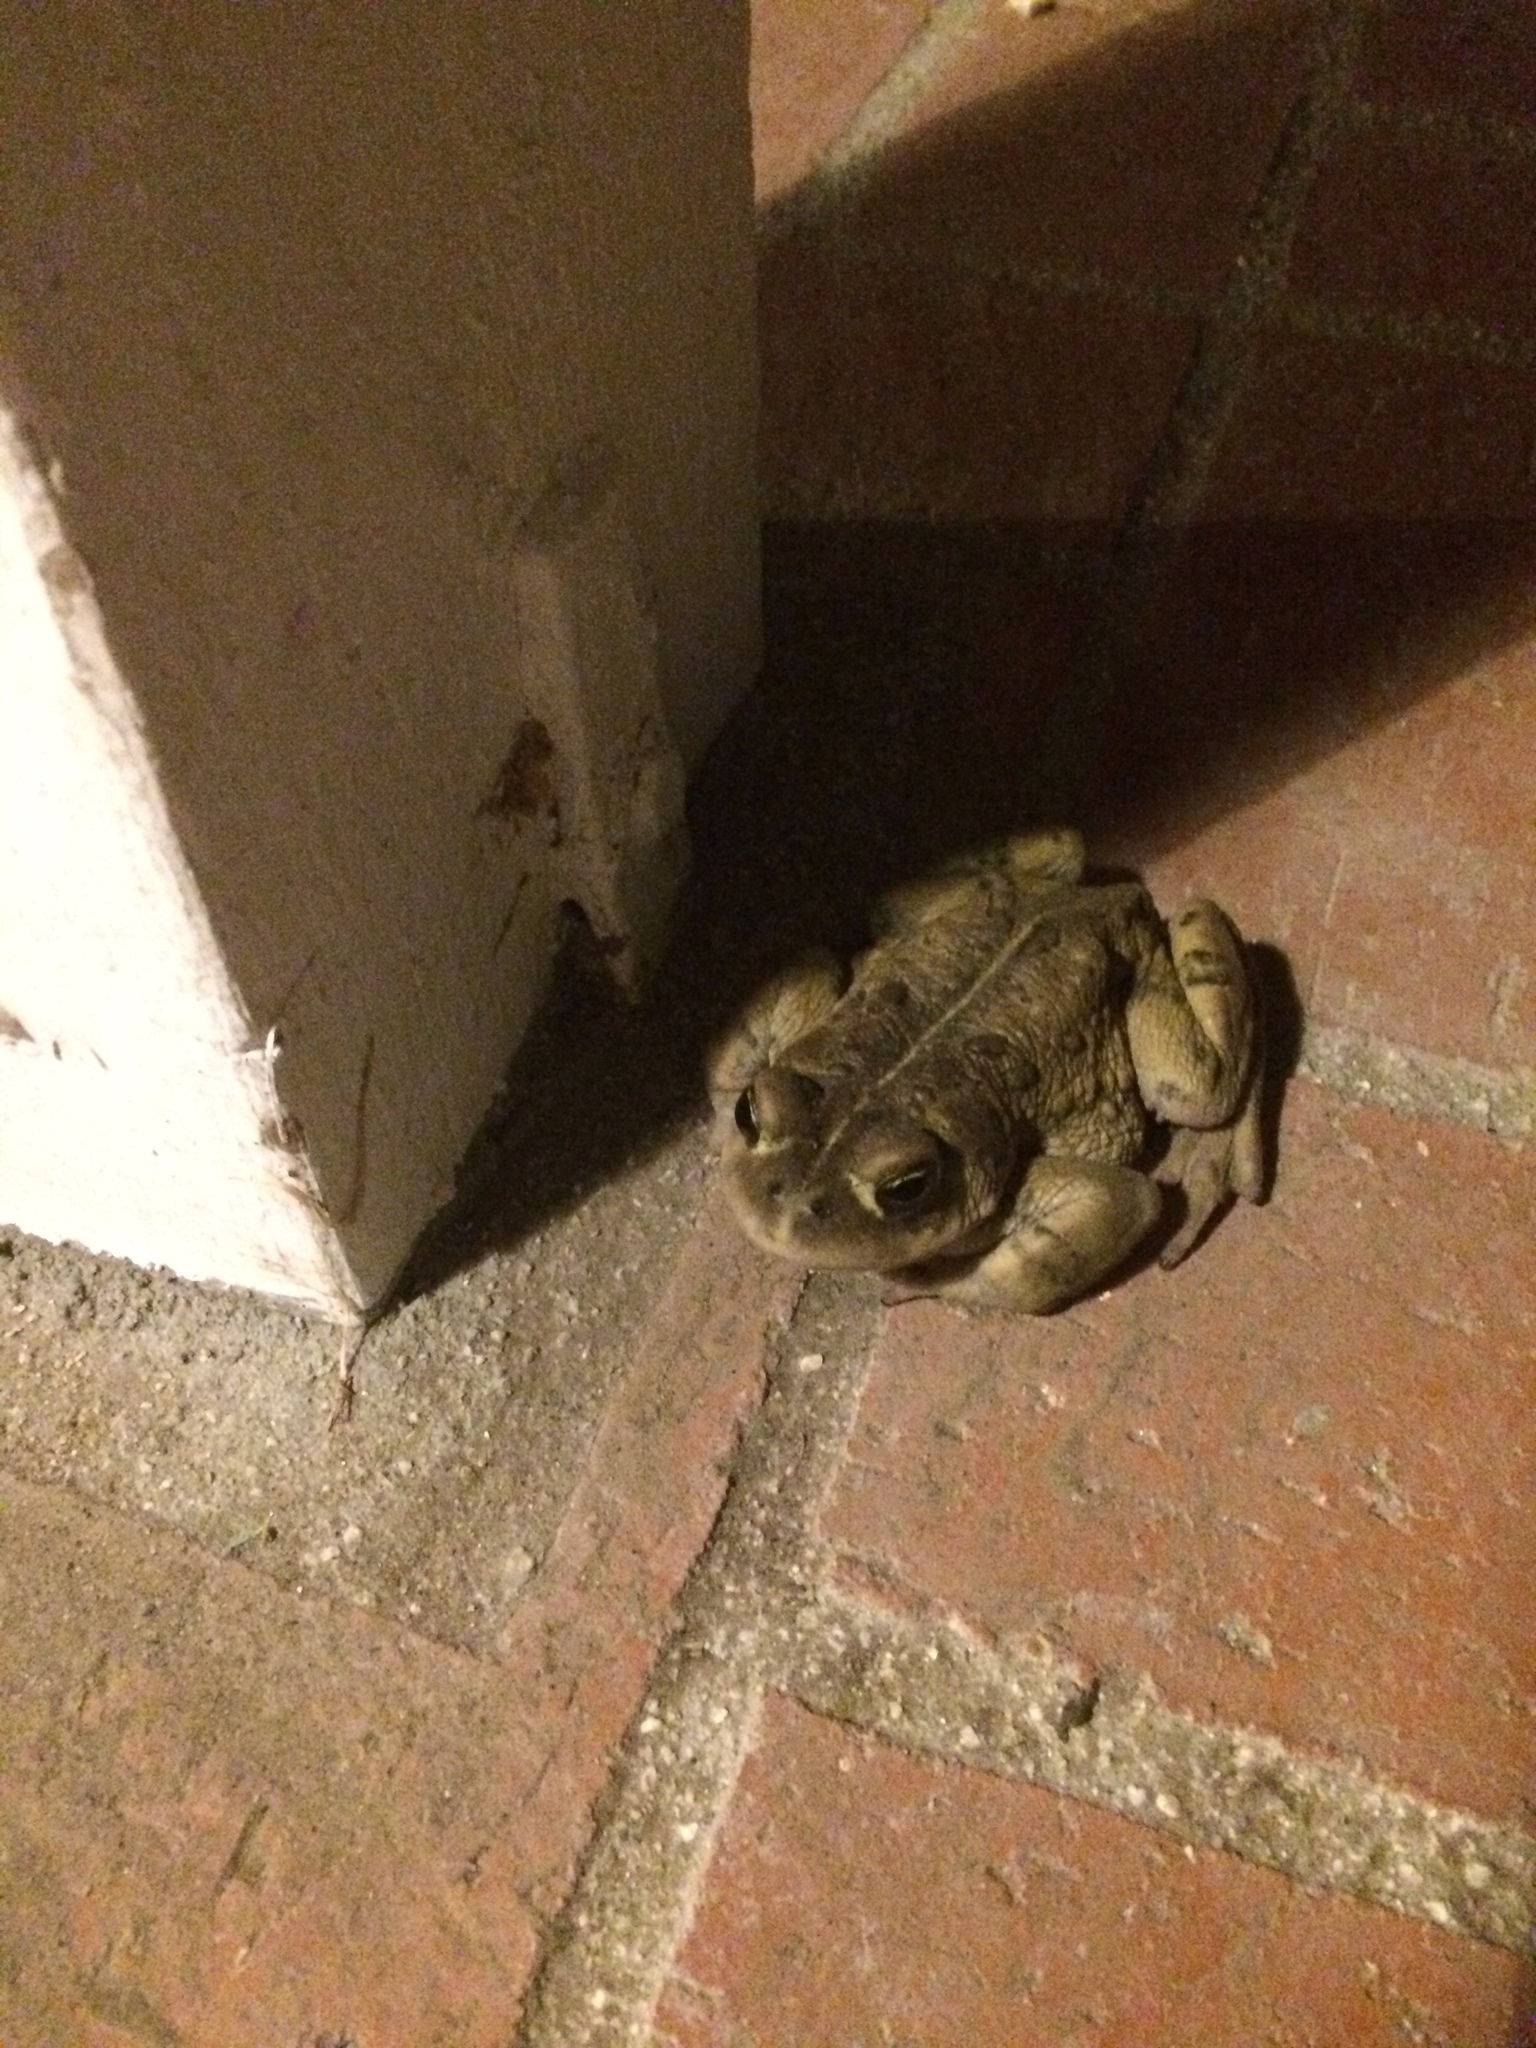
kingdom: Animalia
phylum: Chordata
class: Amphibia
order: Anura
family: Bufonidae
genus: Anaxyrus
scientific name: Anaxyrus boreas
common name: Western toad
